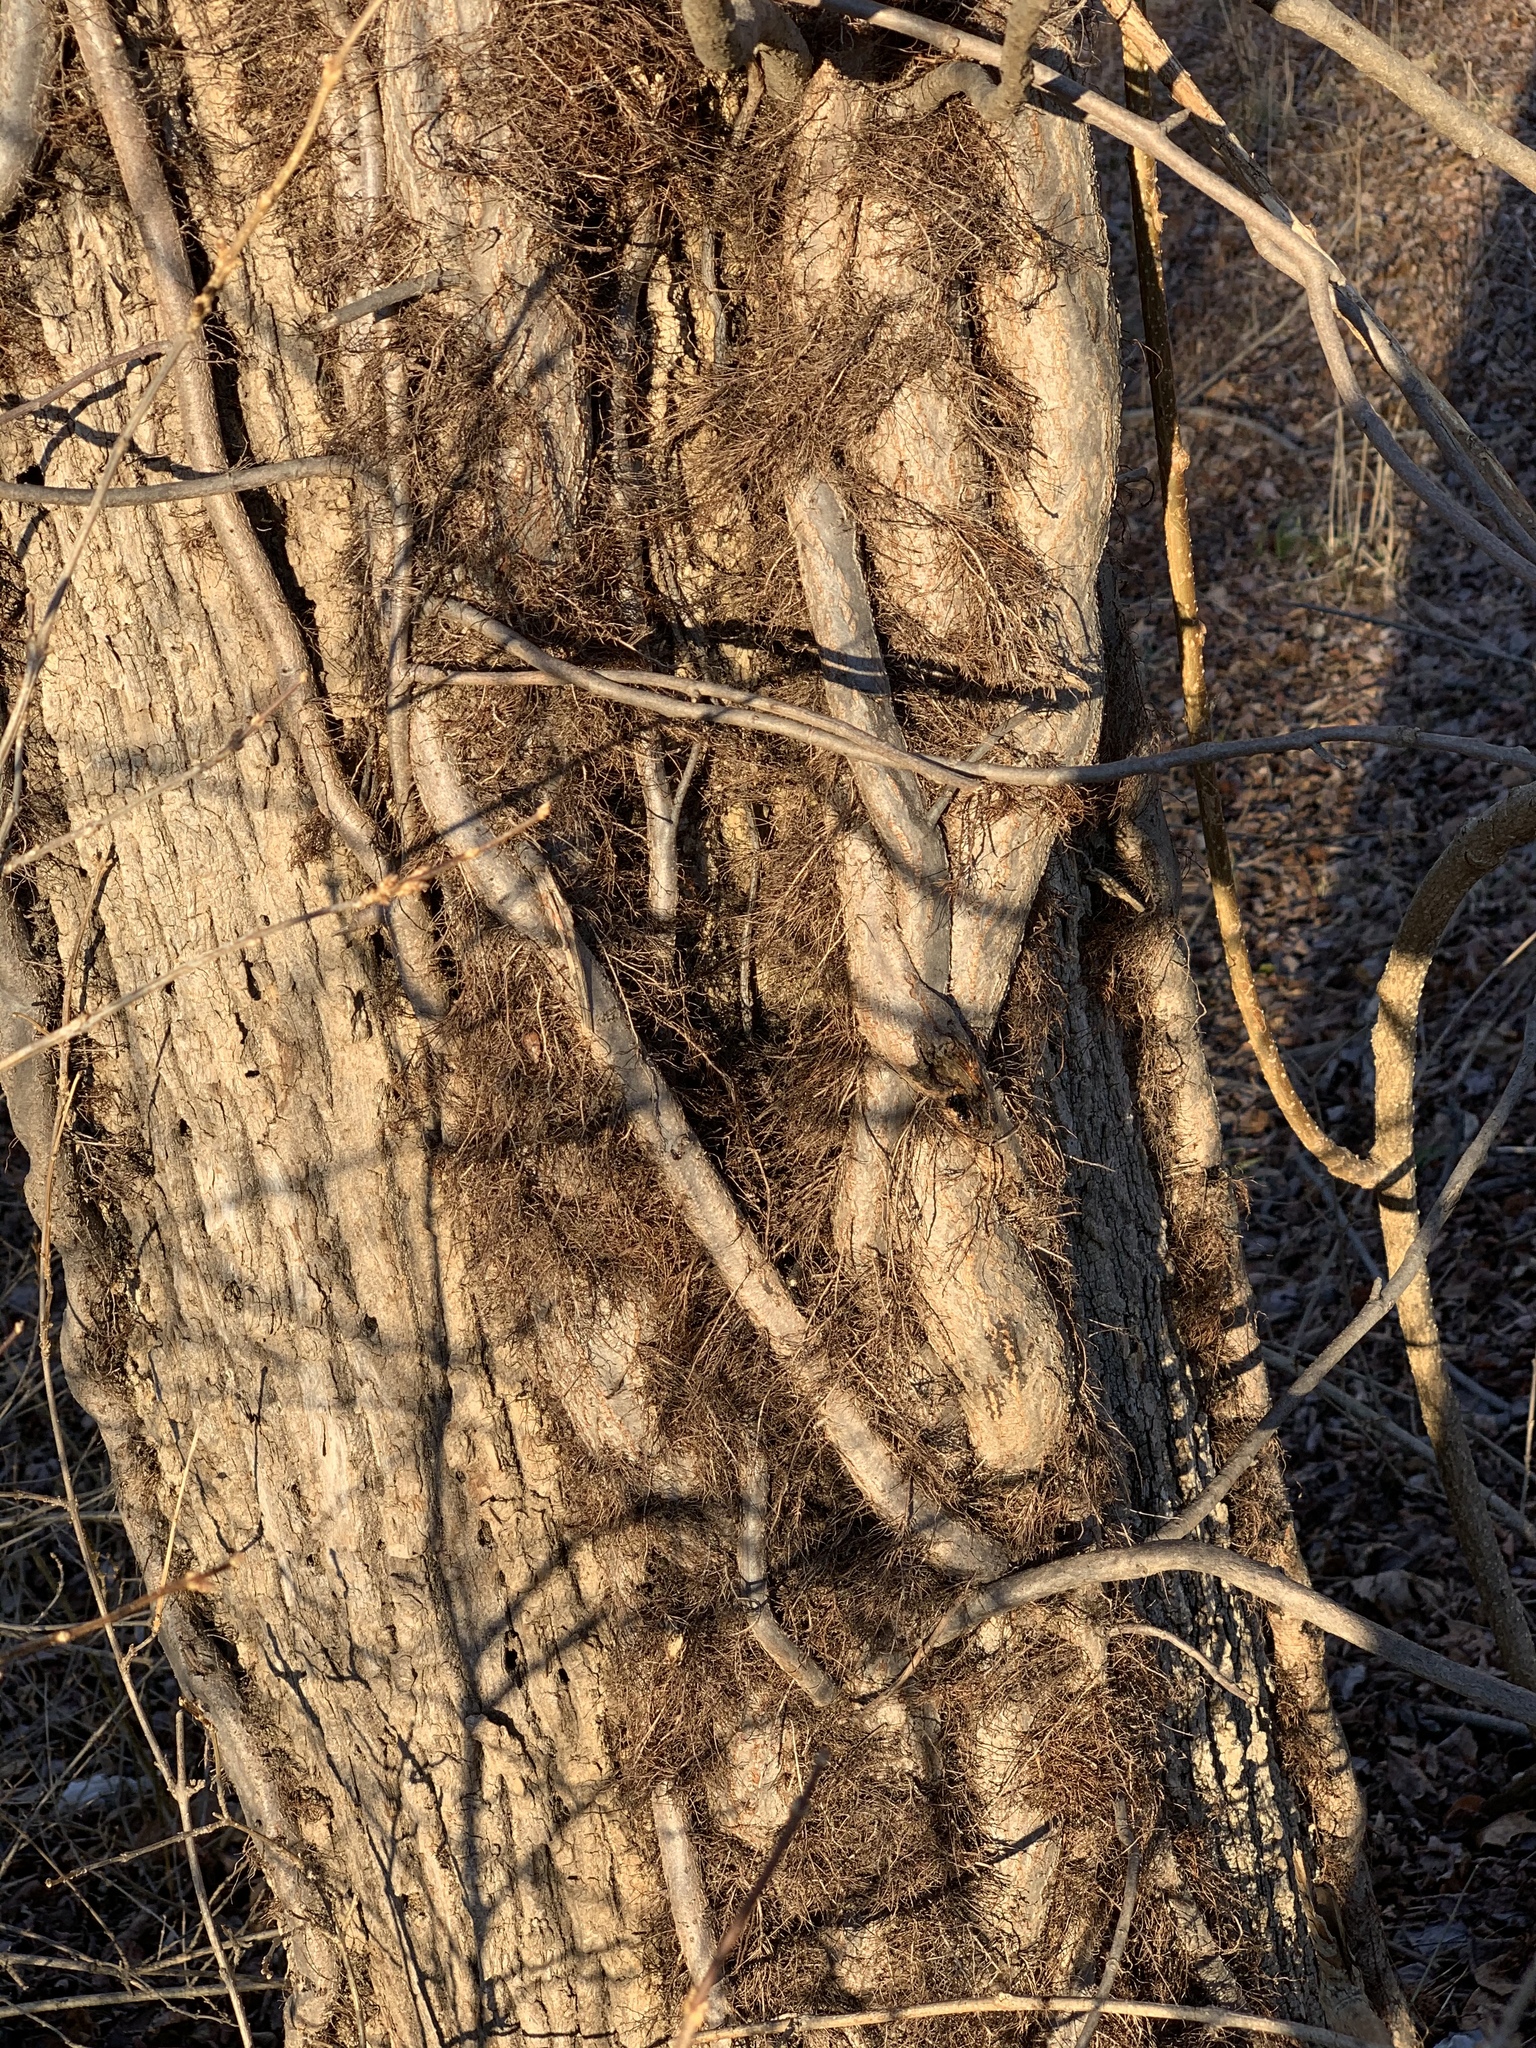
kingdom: Plantae
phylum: Tracheophyta
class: Magnoliopsida
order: Sapindales
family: Anacardiaceae
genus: Toxicodendron
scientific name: Toxicodendron radicans
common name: Poison ivy
